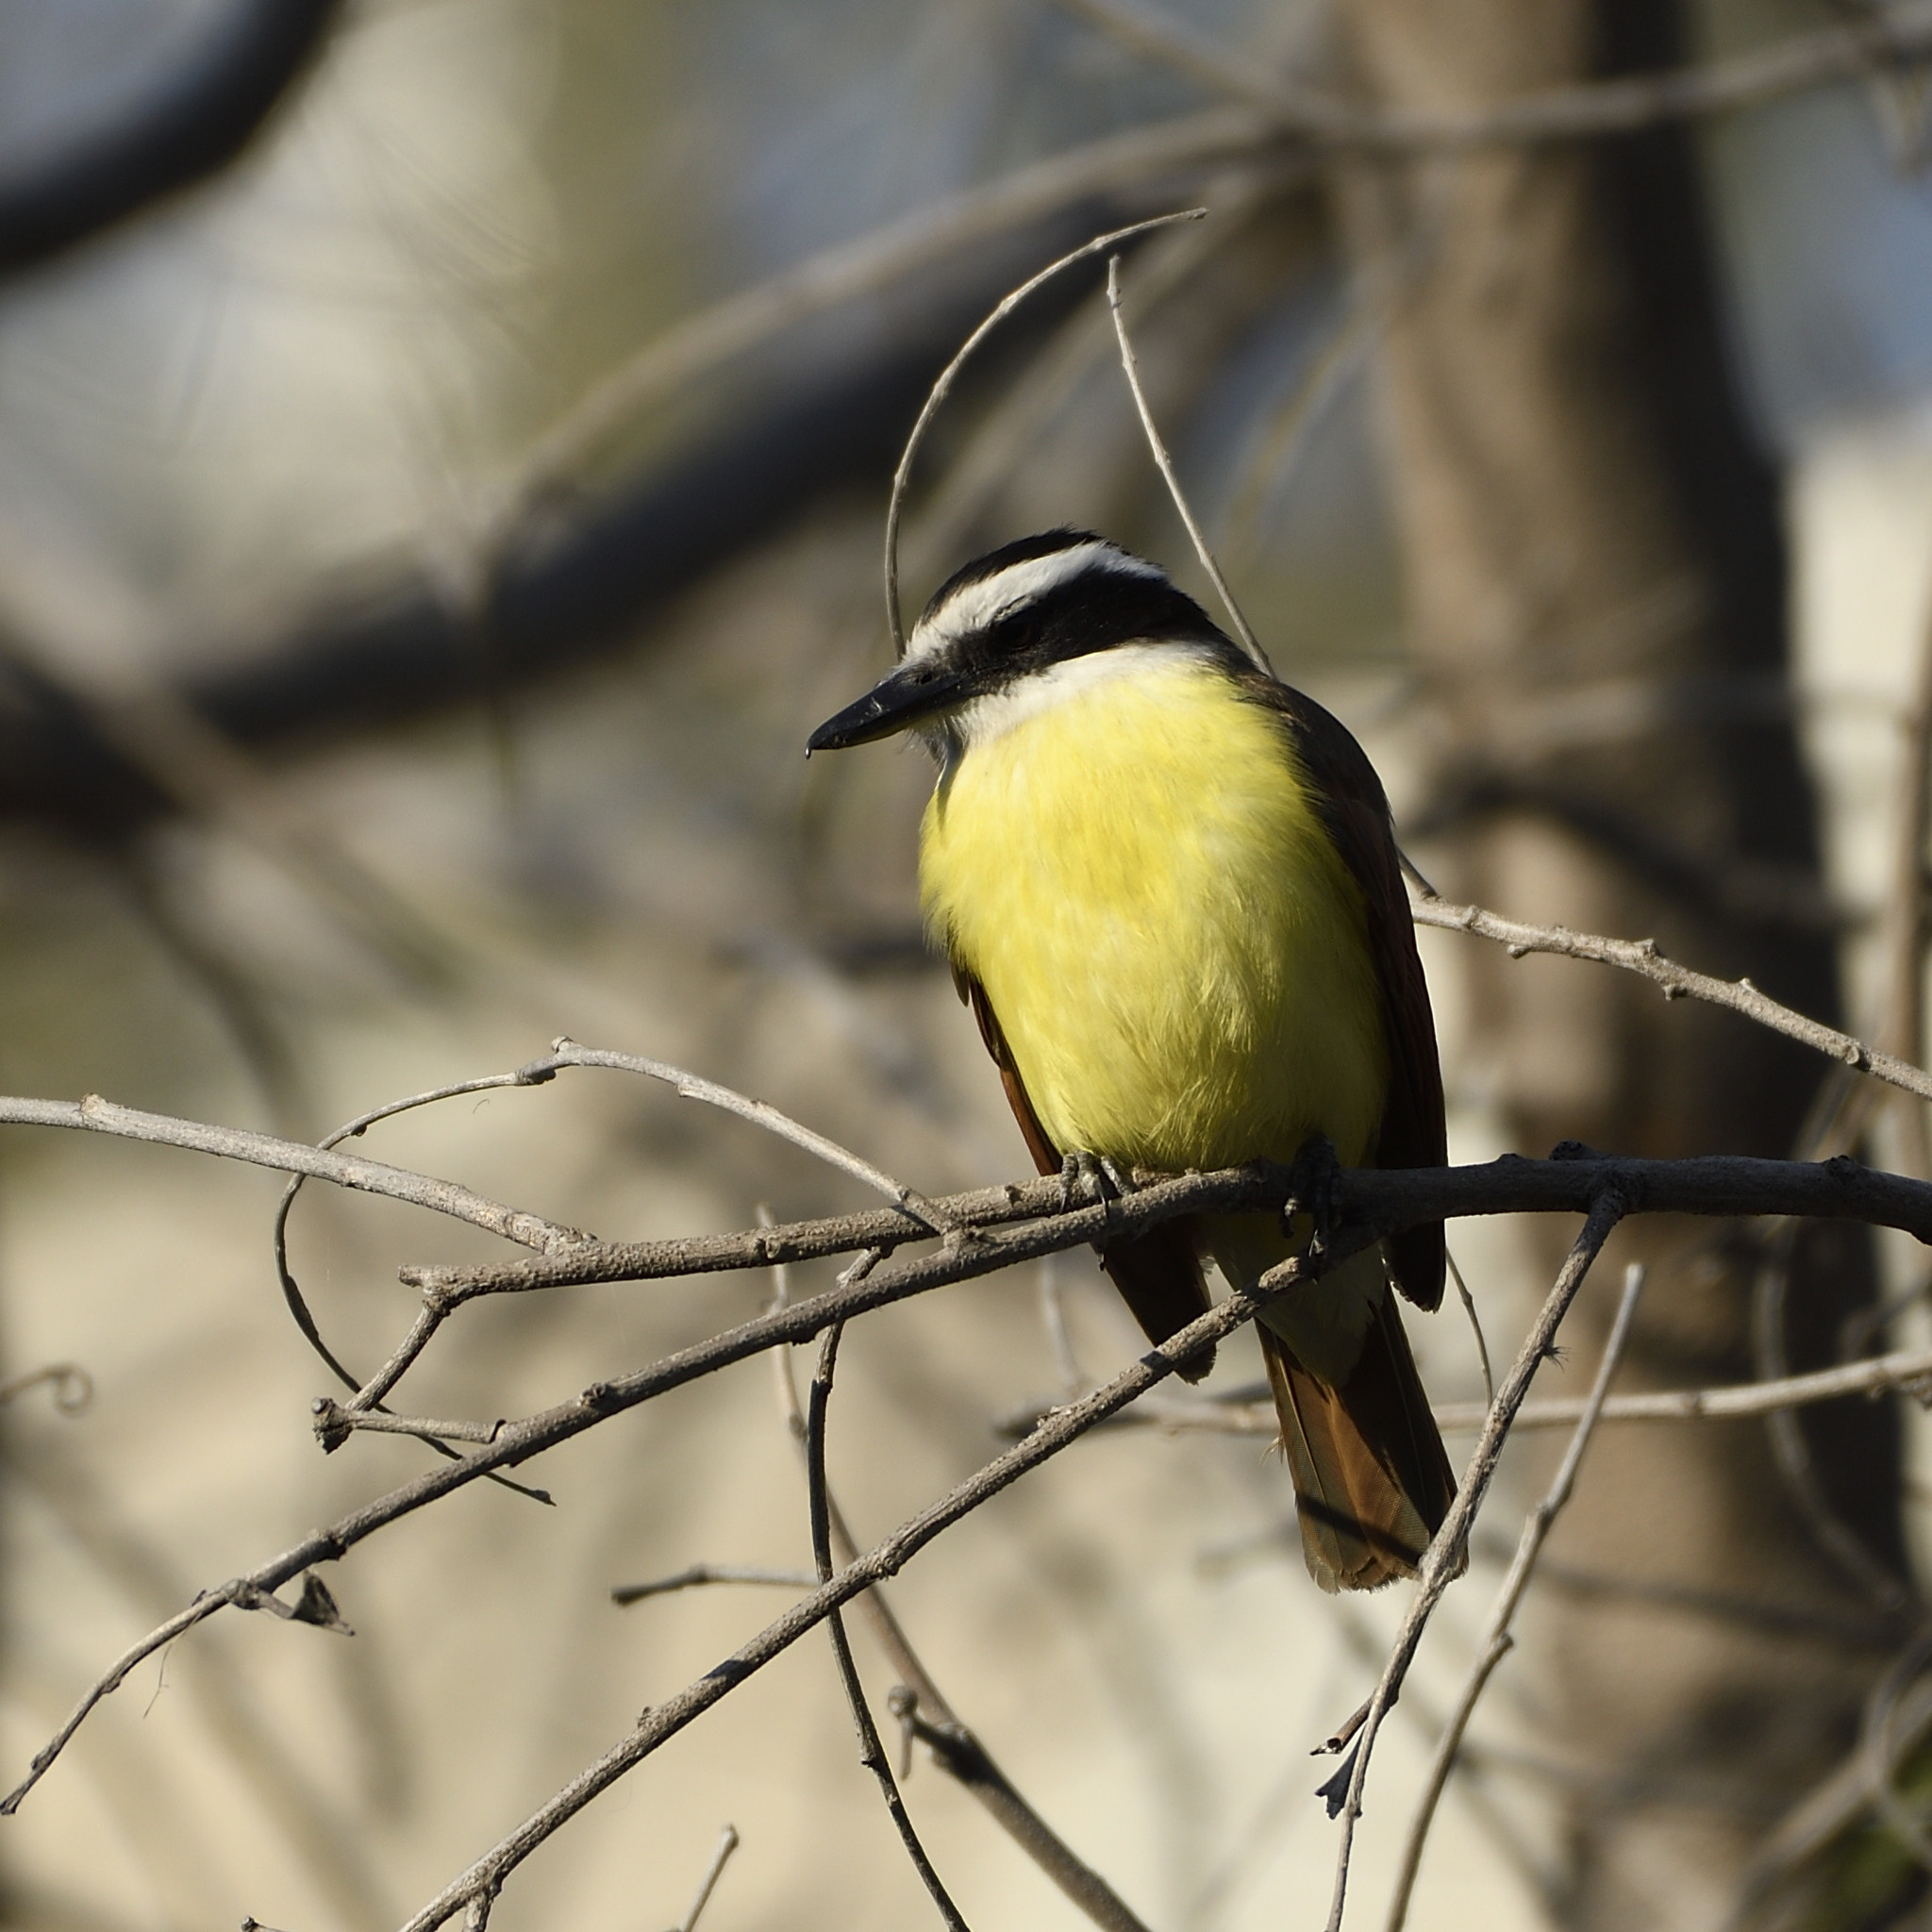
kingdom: Animalia
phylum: Chordata
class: Aves
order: Passeriformes
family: Tyrannidae
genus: Pitangus
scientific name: Pitangus sulphuratus
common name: Great kiskadee
